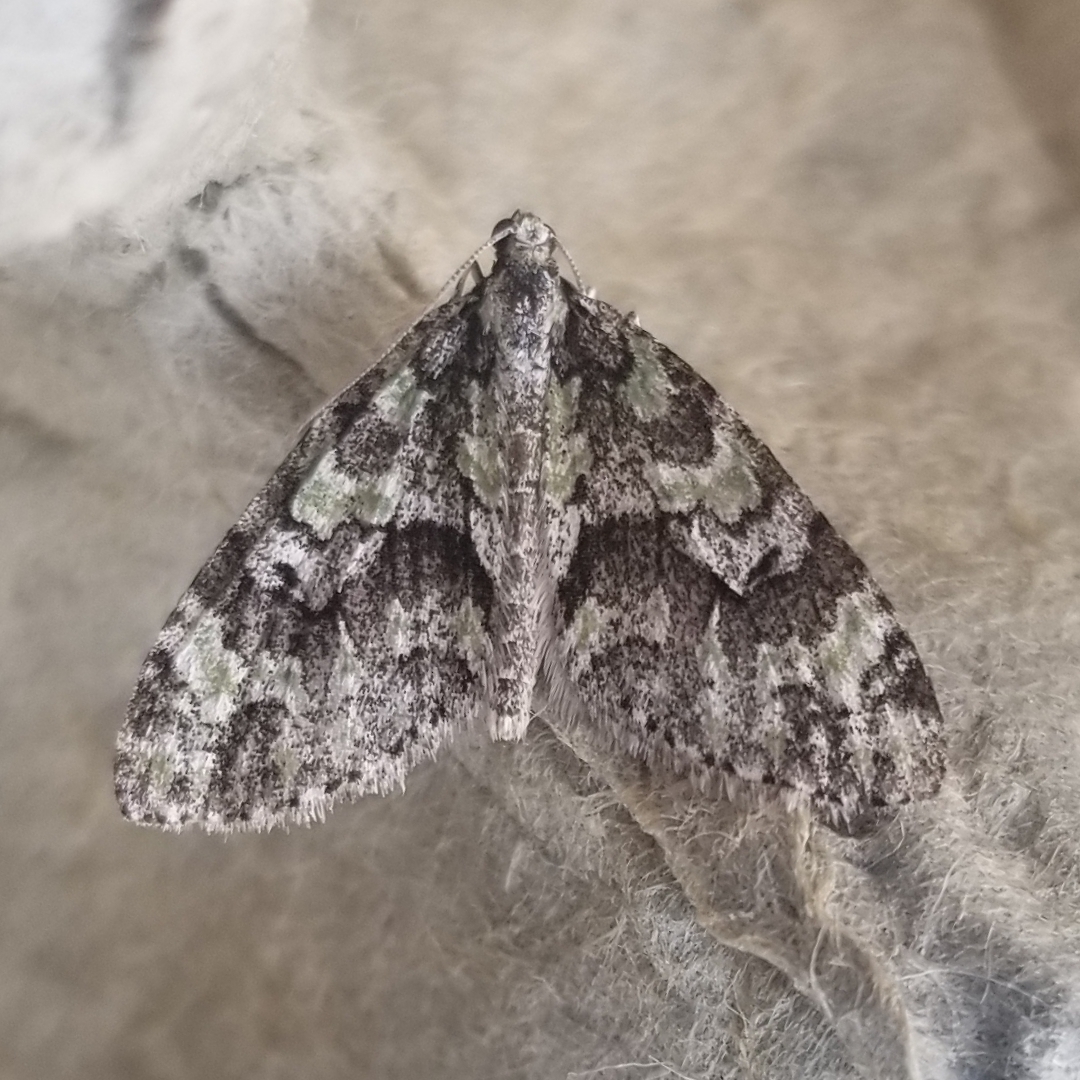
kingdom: Animalia
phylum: Arthropoda
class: Insecta
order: Lepidoptera
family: Geometridae
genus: Cladara
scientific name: Cladara limitaria
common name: Mottled gray carpet
